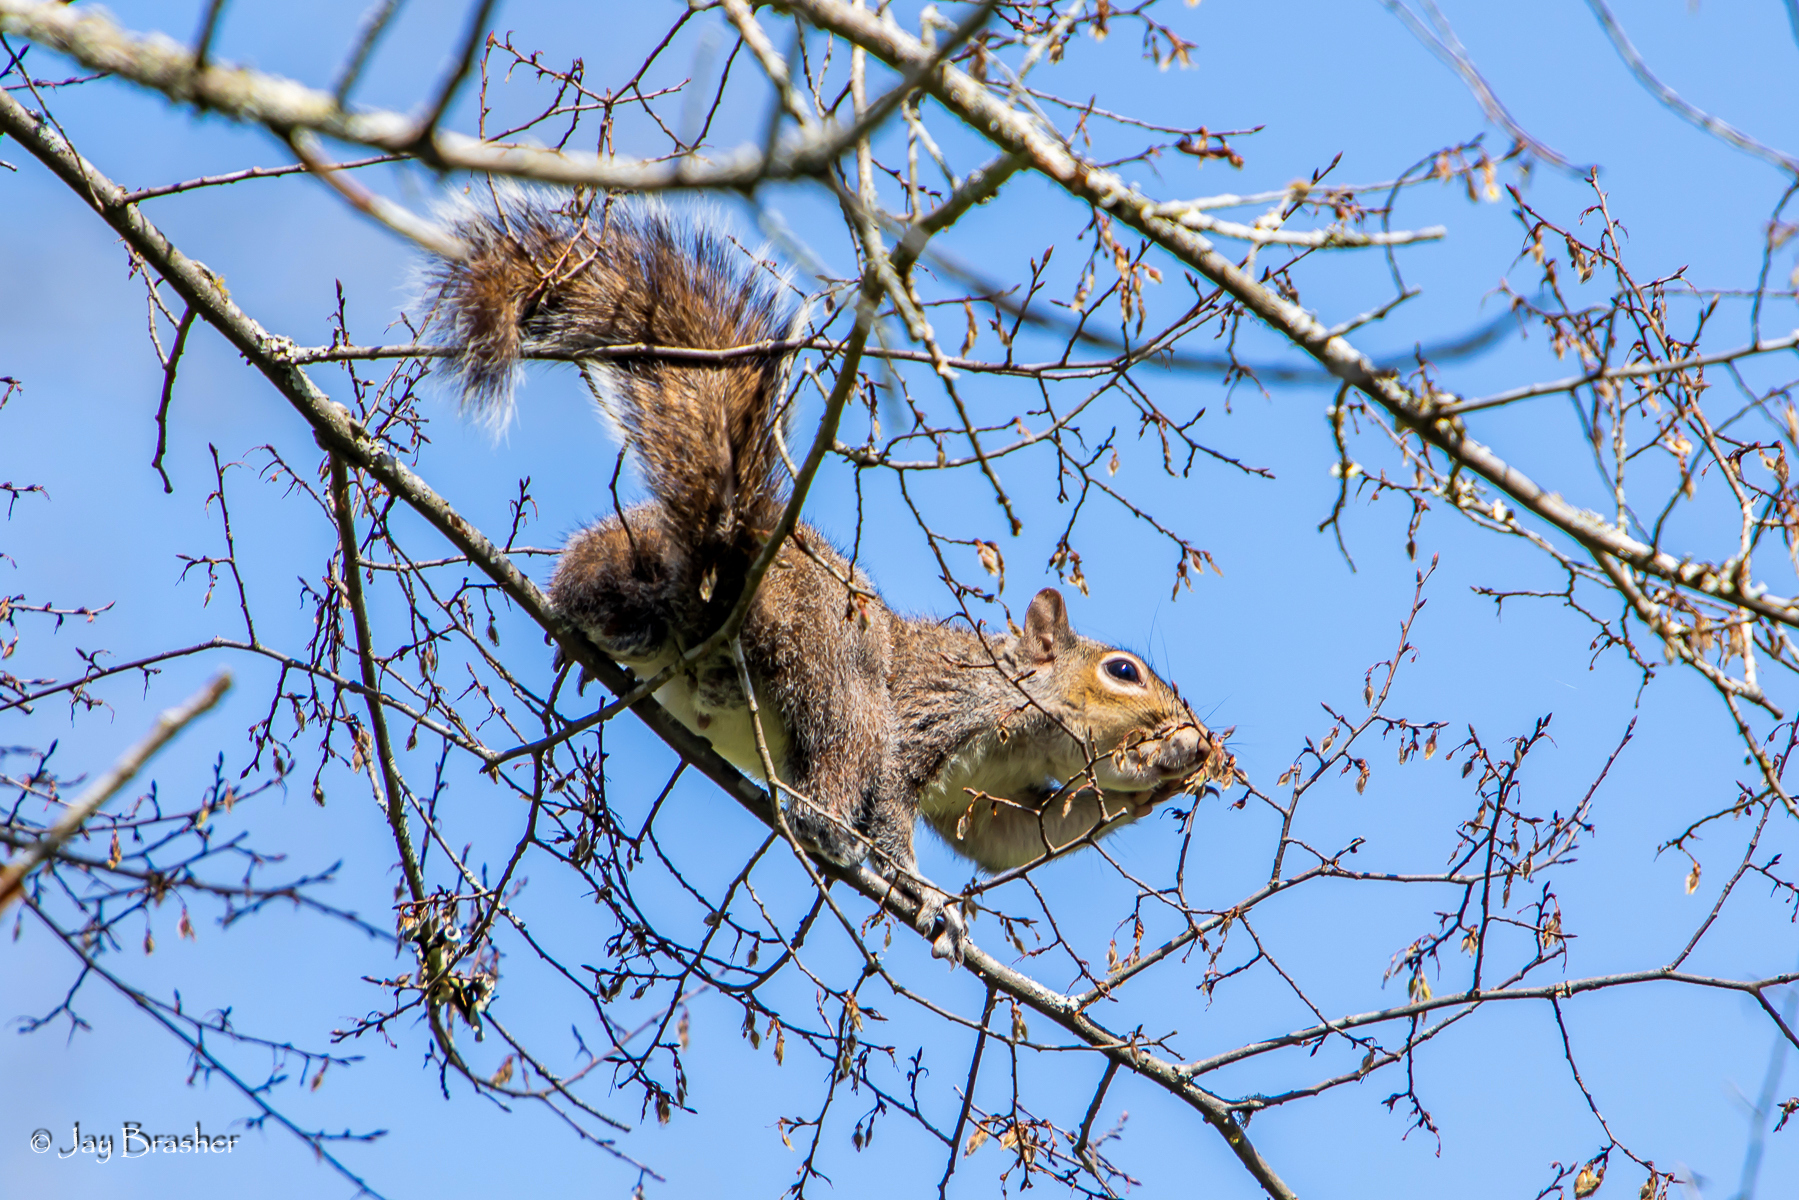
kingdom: Animalia
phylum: Chordata
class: Mammalia
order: Rodentia
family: Sciuridae
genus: Sciurus
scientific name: Sciurus carolinensis
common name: Eastern gray squirrel
